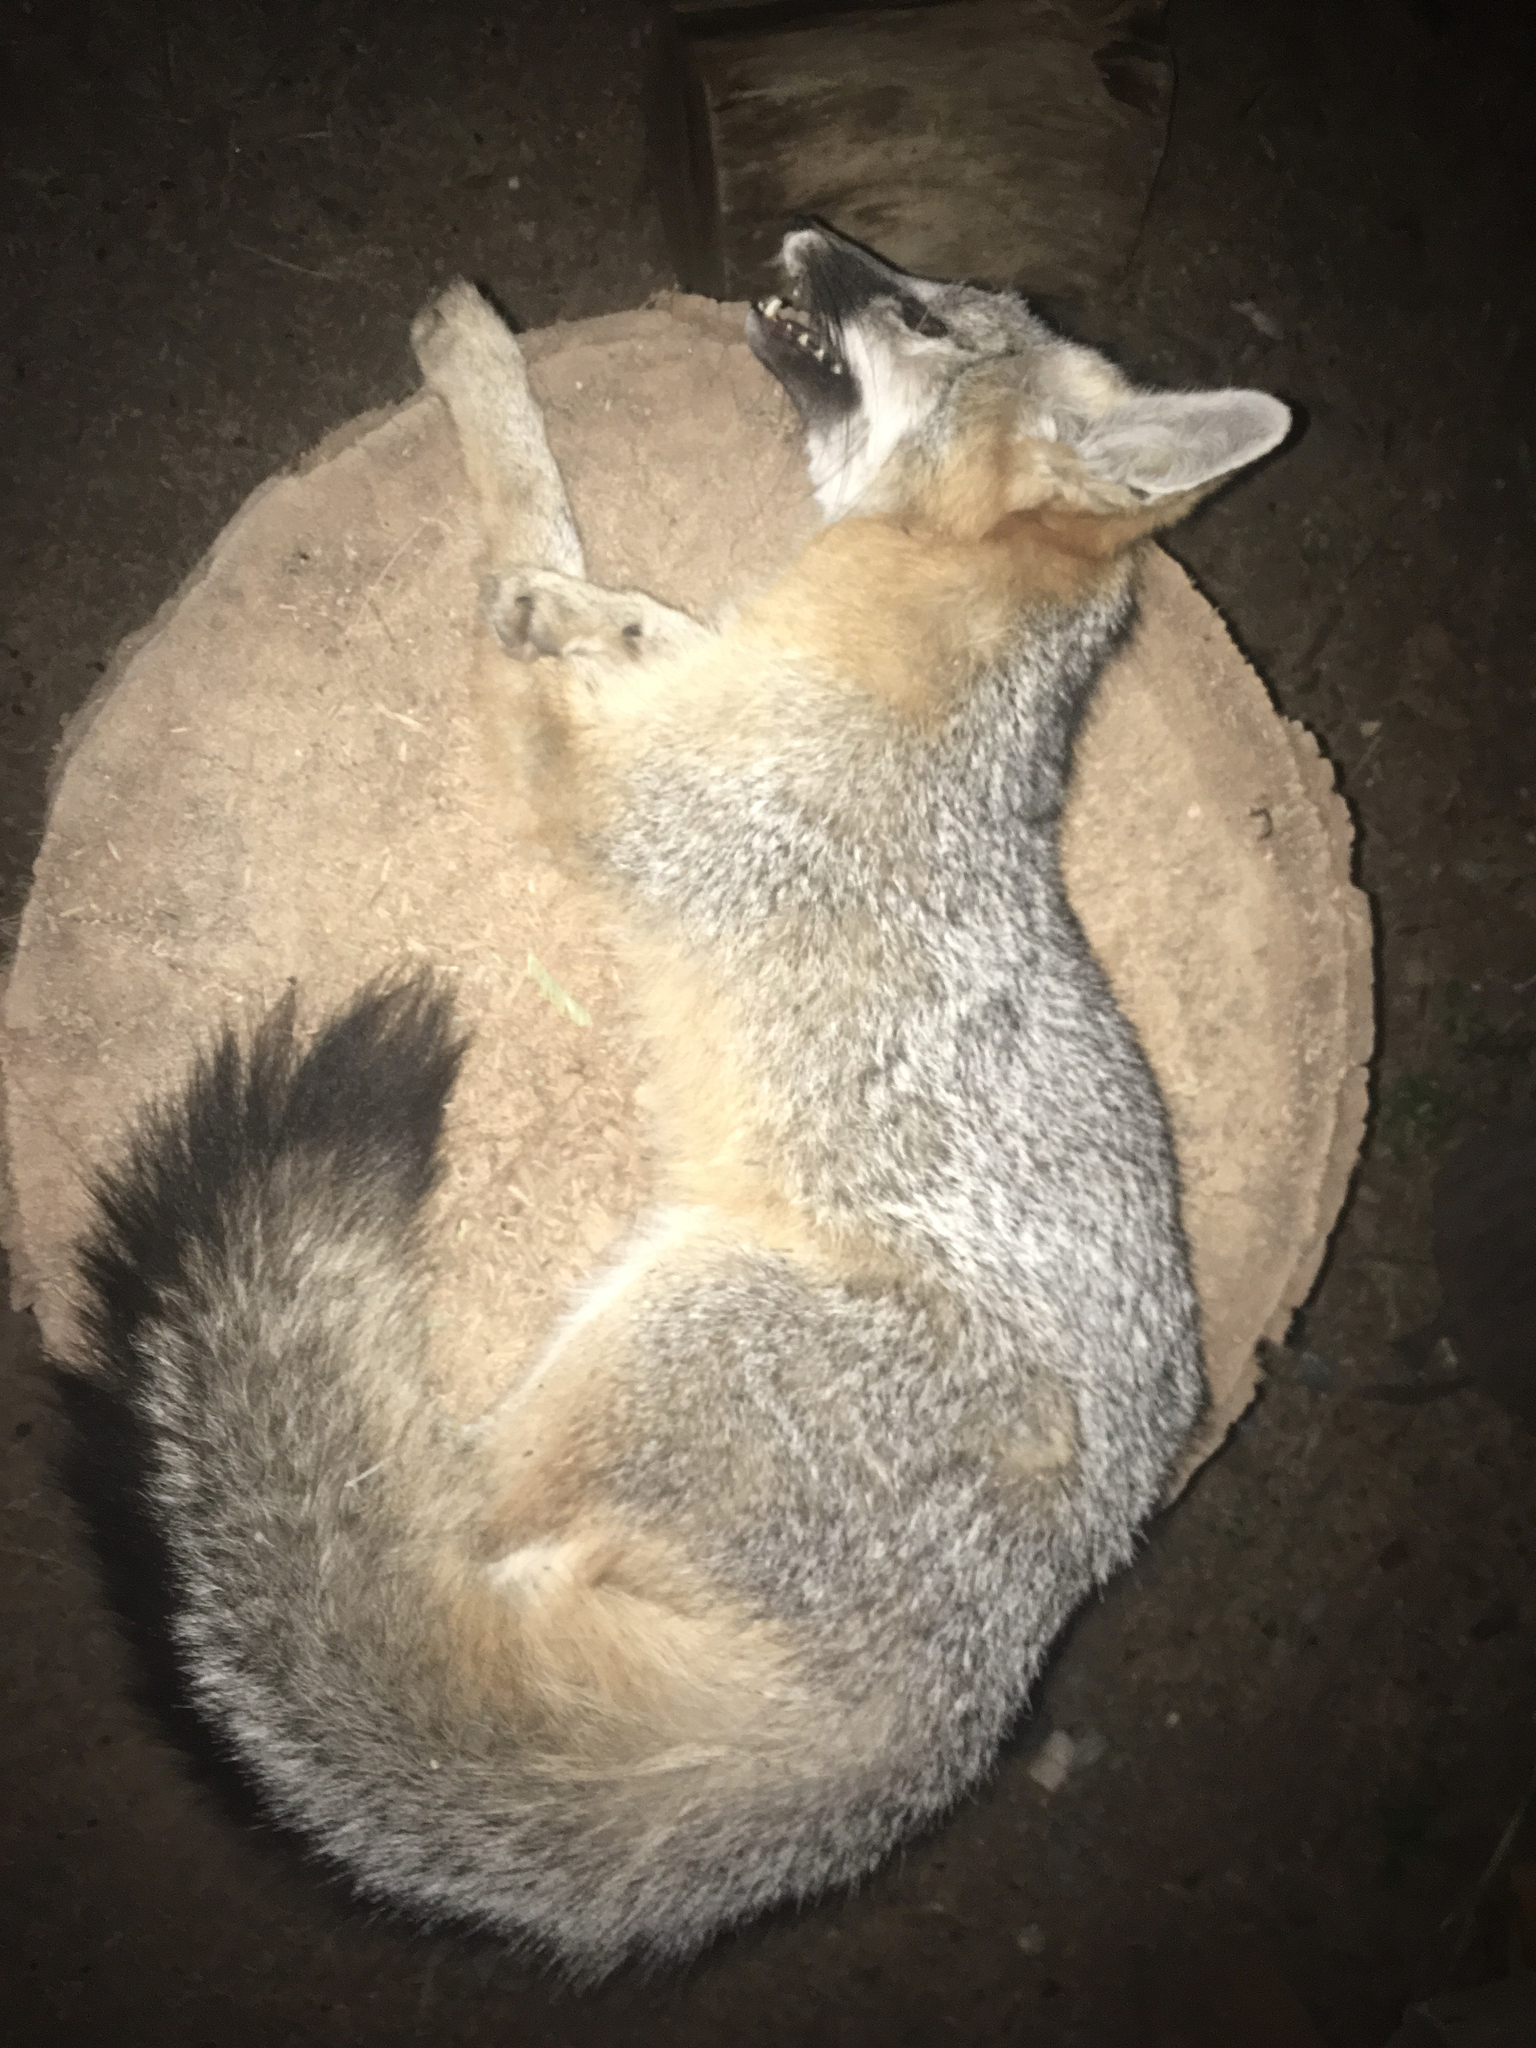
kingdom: Animalia
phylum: Chordata
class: Mammalia
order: Carnivora
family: Canidae
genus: Urocyon
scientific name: Urocyon cinereoargenteus
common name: Gray fox
